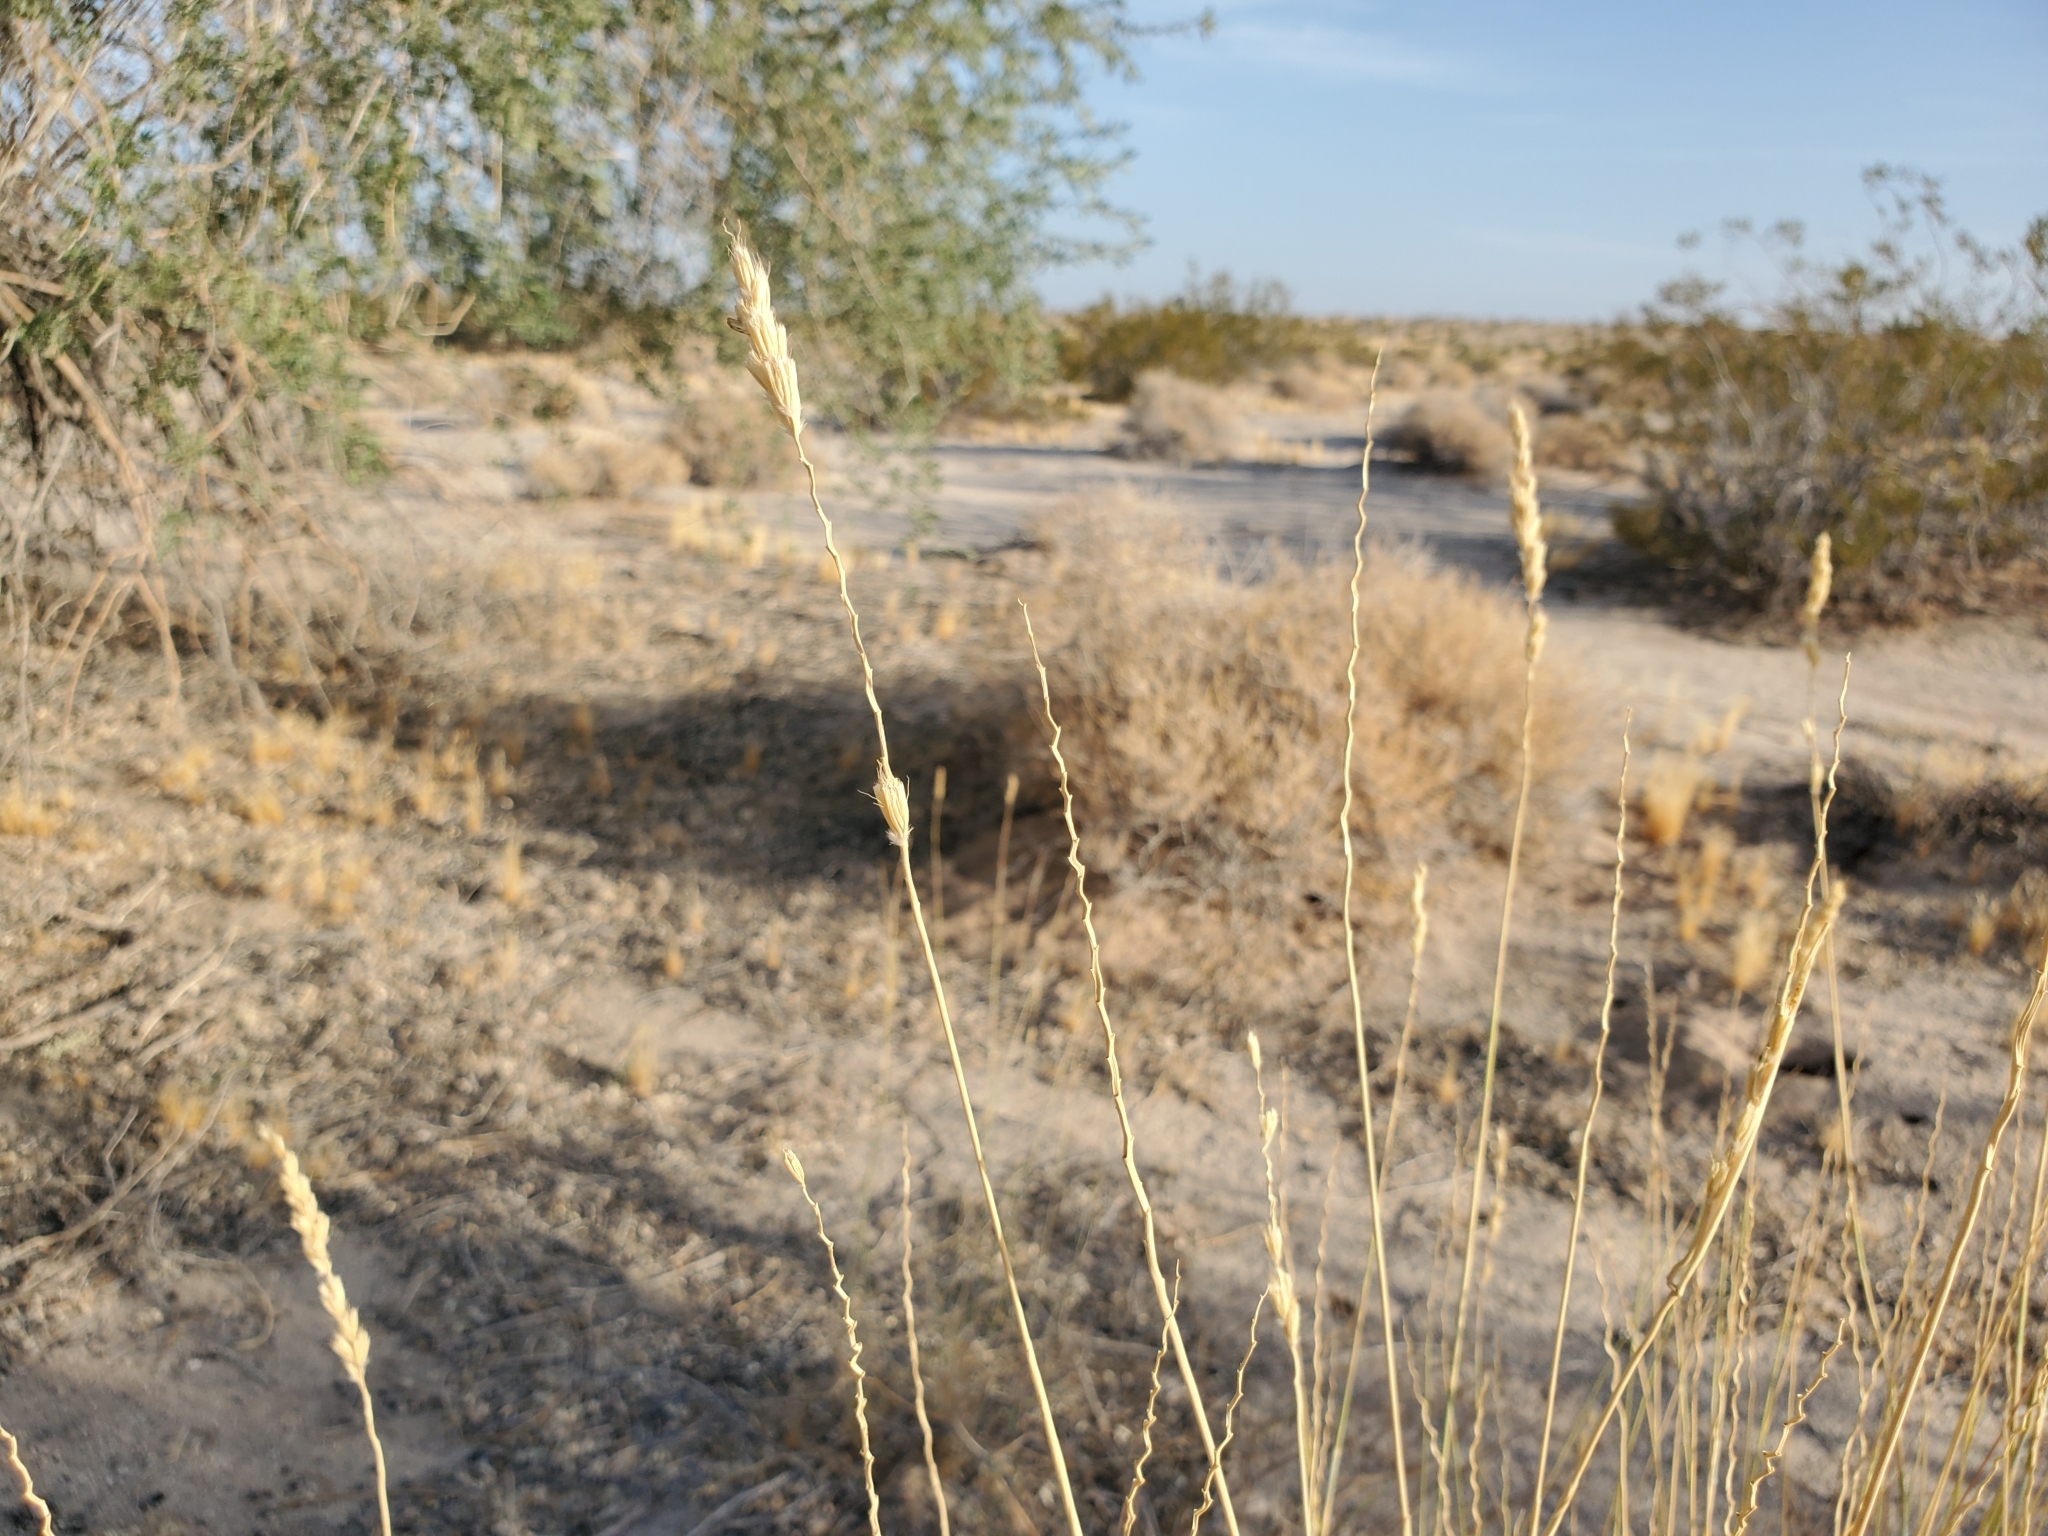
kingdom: Plantae
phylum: Tracheophyta
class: Liliopsida
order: Poales
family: Poaceae
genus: Hilaria
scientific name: Hilaria rigida
